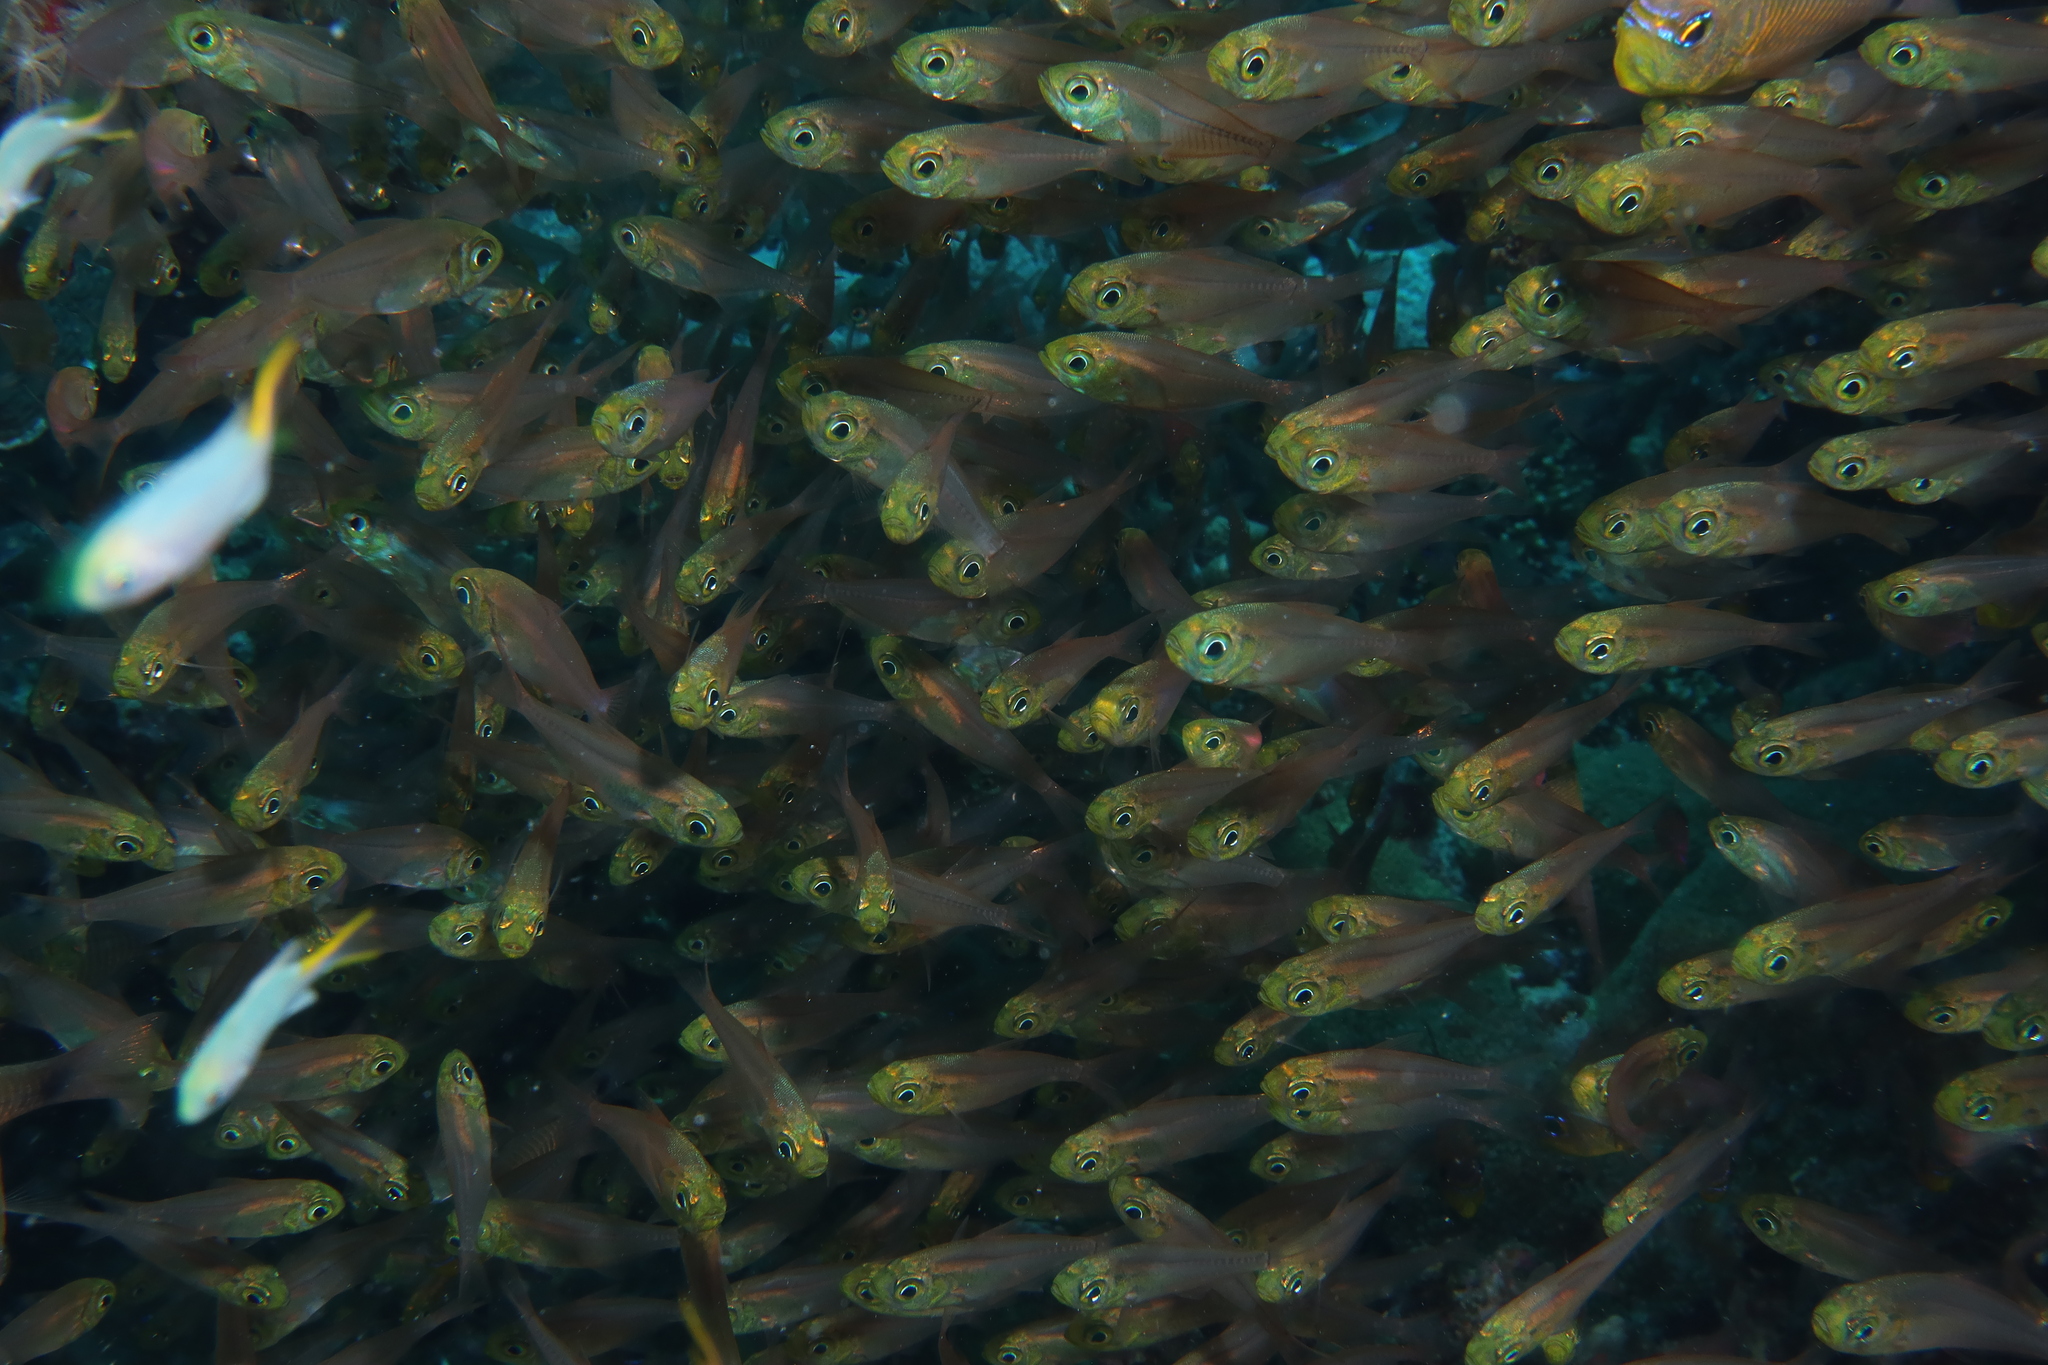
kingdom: Animalia
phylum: Chordata
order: Perciformes
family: Pempheridae
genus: Parapriacanthus
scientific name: Parapriacanthus guentheri
